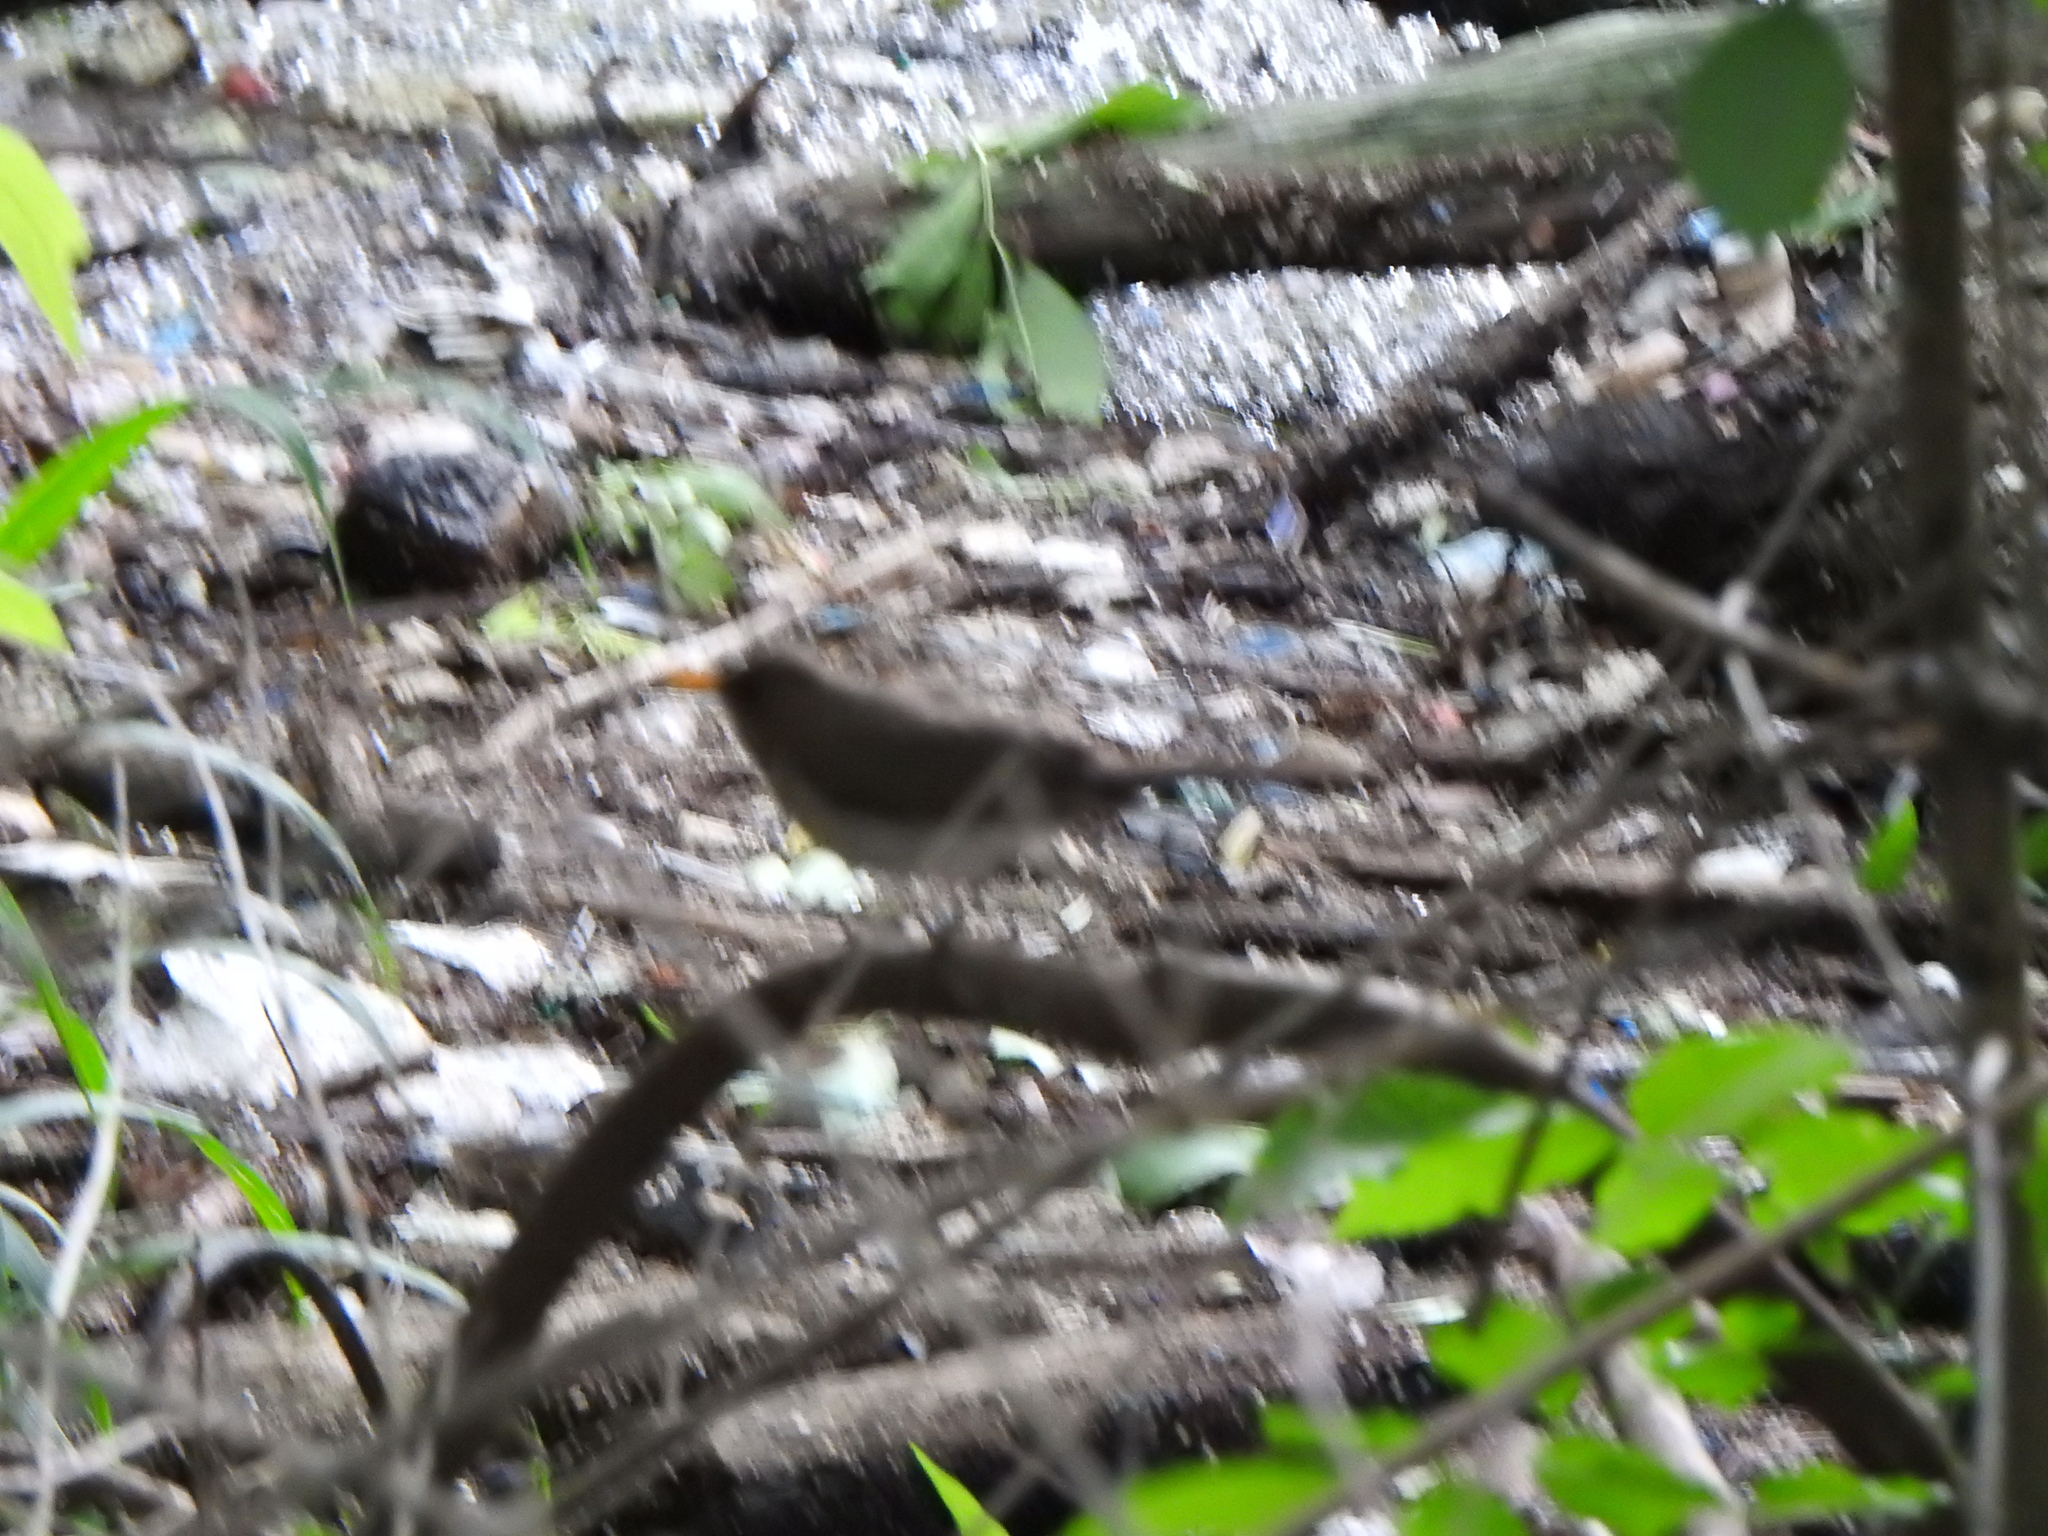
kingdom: Animalia
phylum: Chordata
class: Aves
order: Passeriformes
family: Turdidae
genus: Turdus
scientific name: Turdus amaurochalinus
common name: Creamy-bellied thrush
